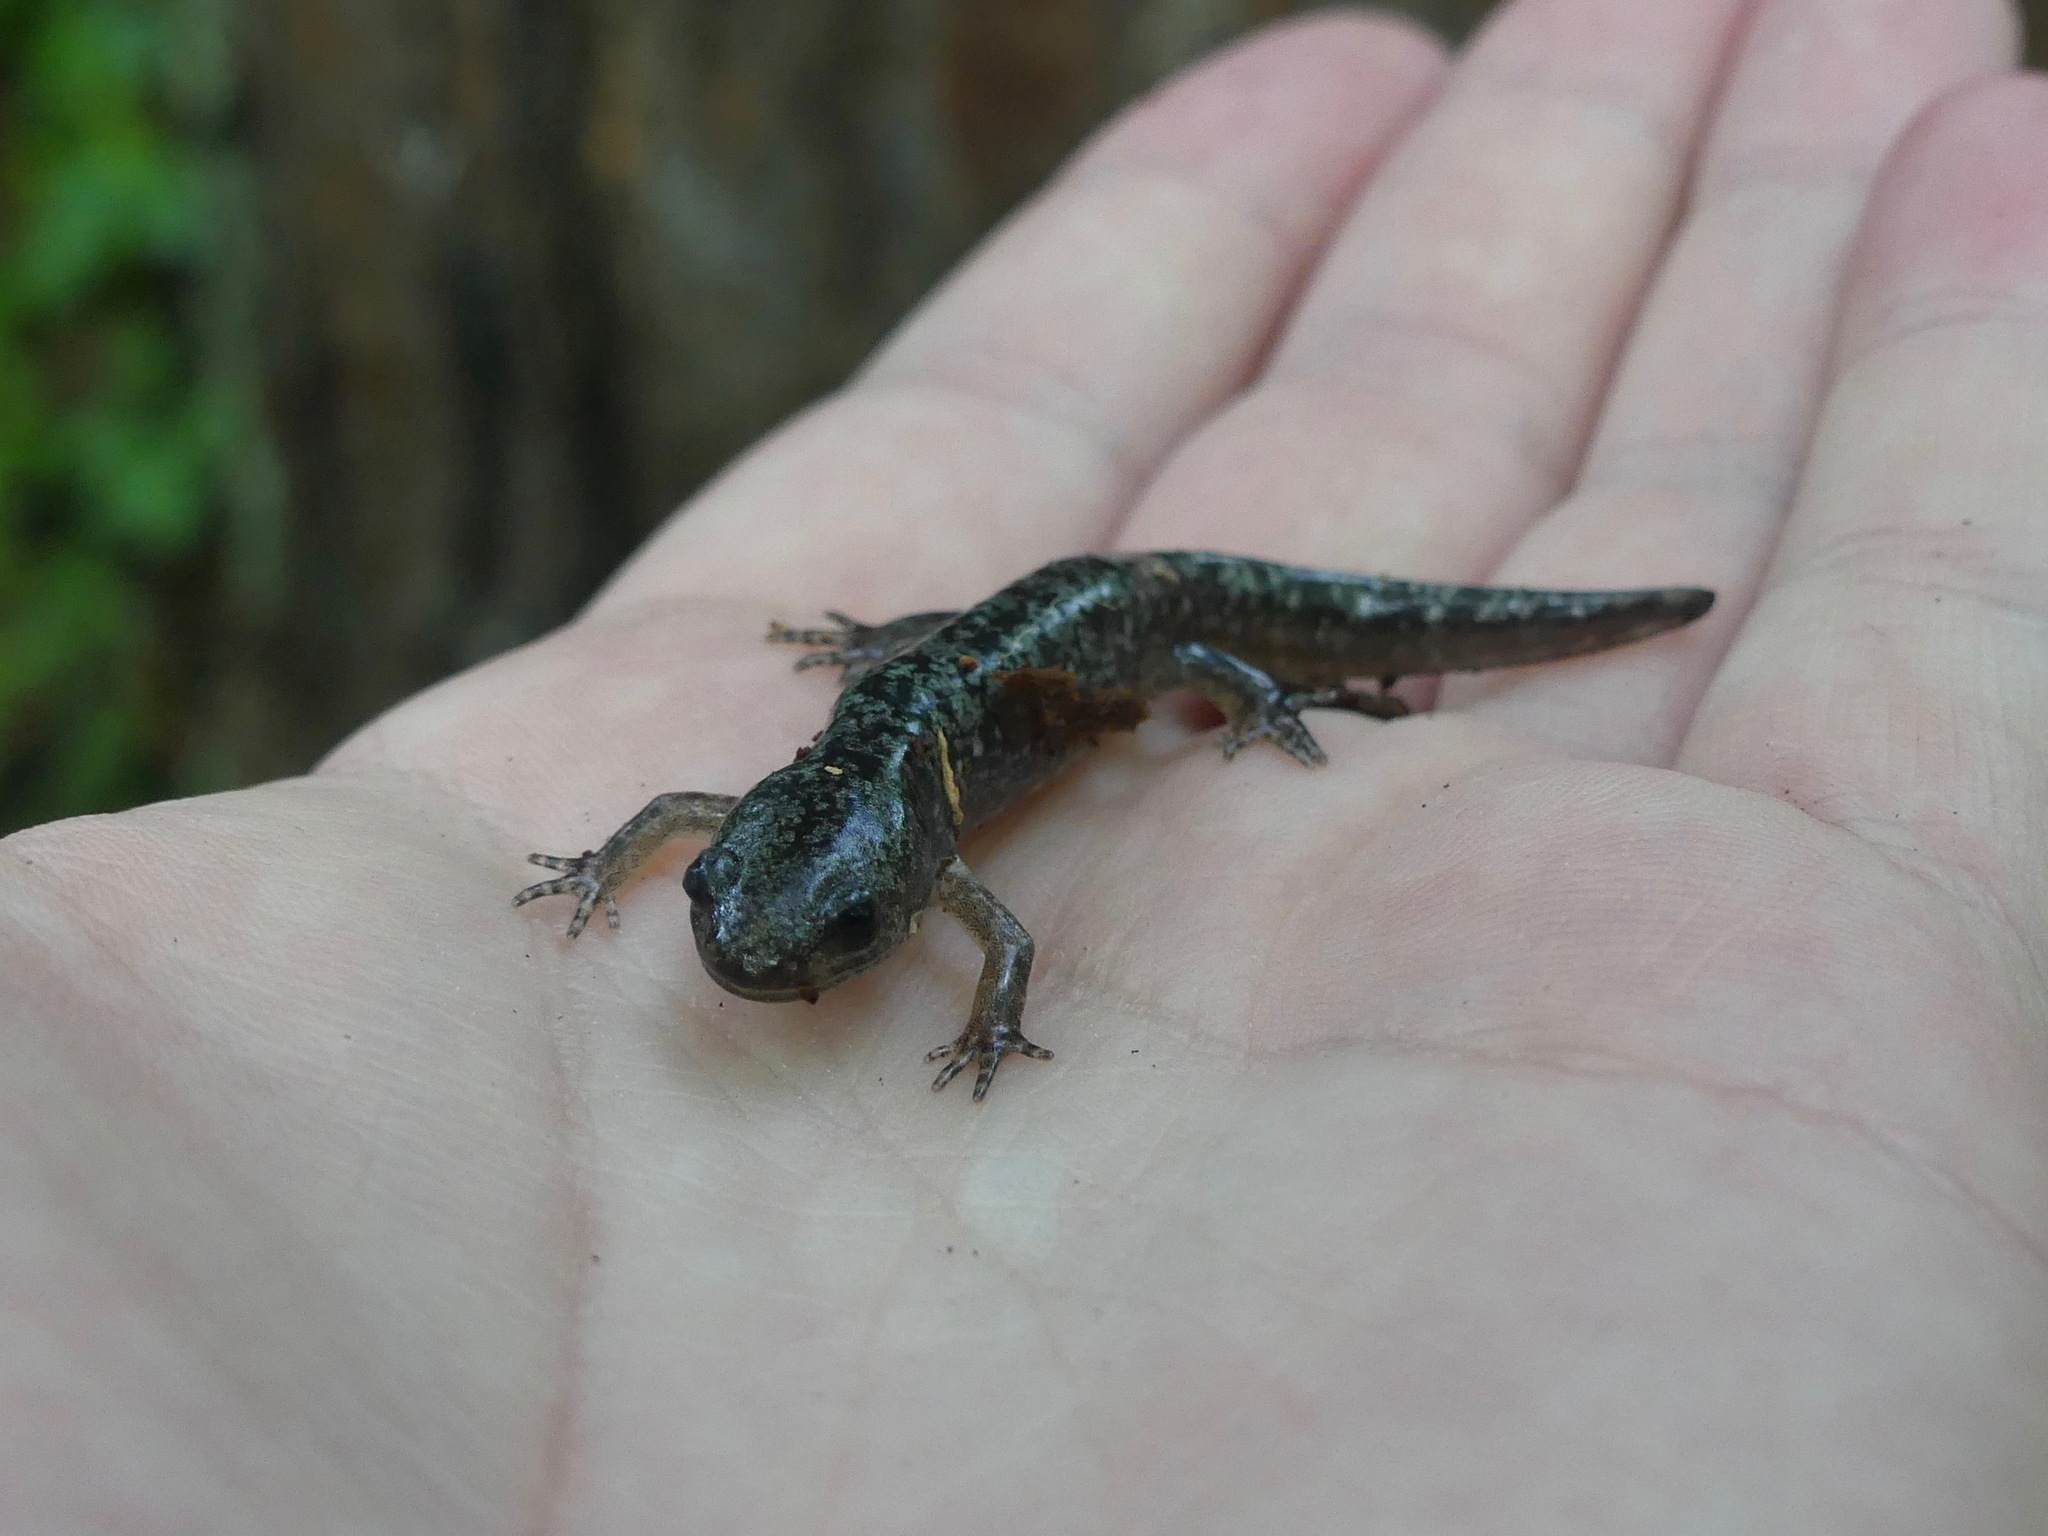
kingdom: Animalia
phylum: Chordata
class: Amphibia
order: Caudata
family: Ambystomatidae
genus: Ambystoma
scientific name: Ambystoma opacum
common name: Marbled salamander
